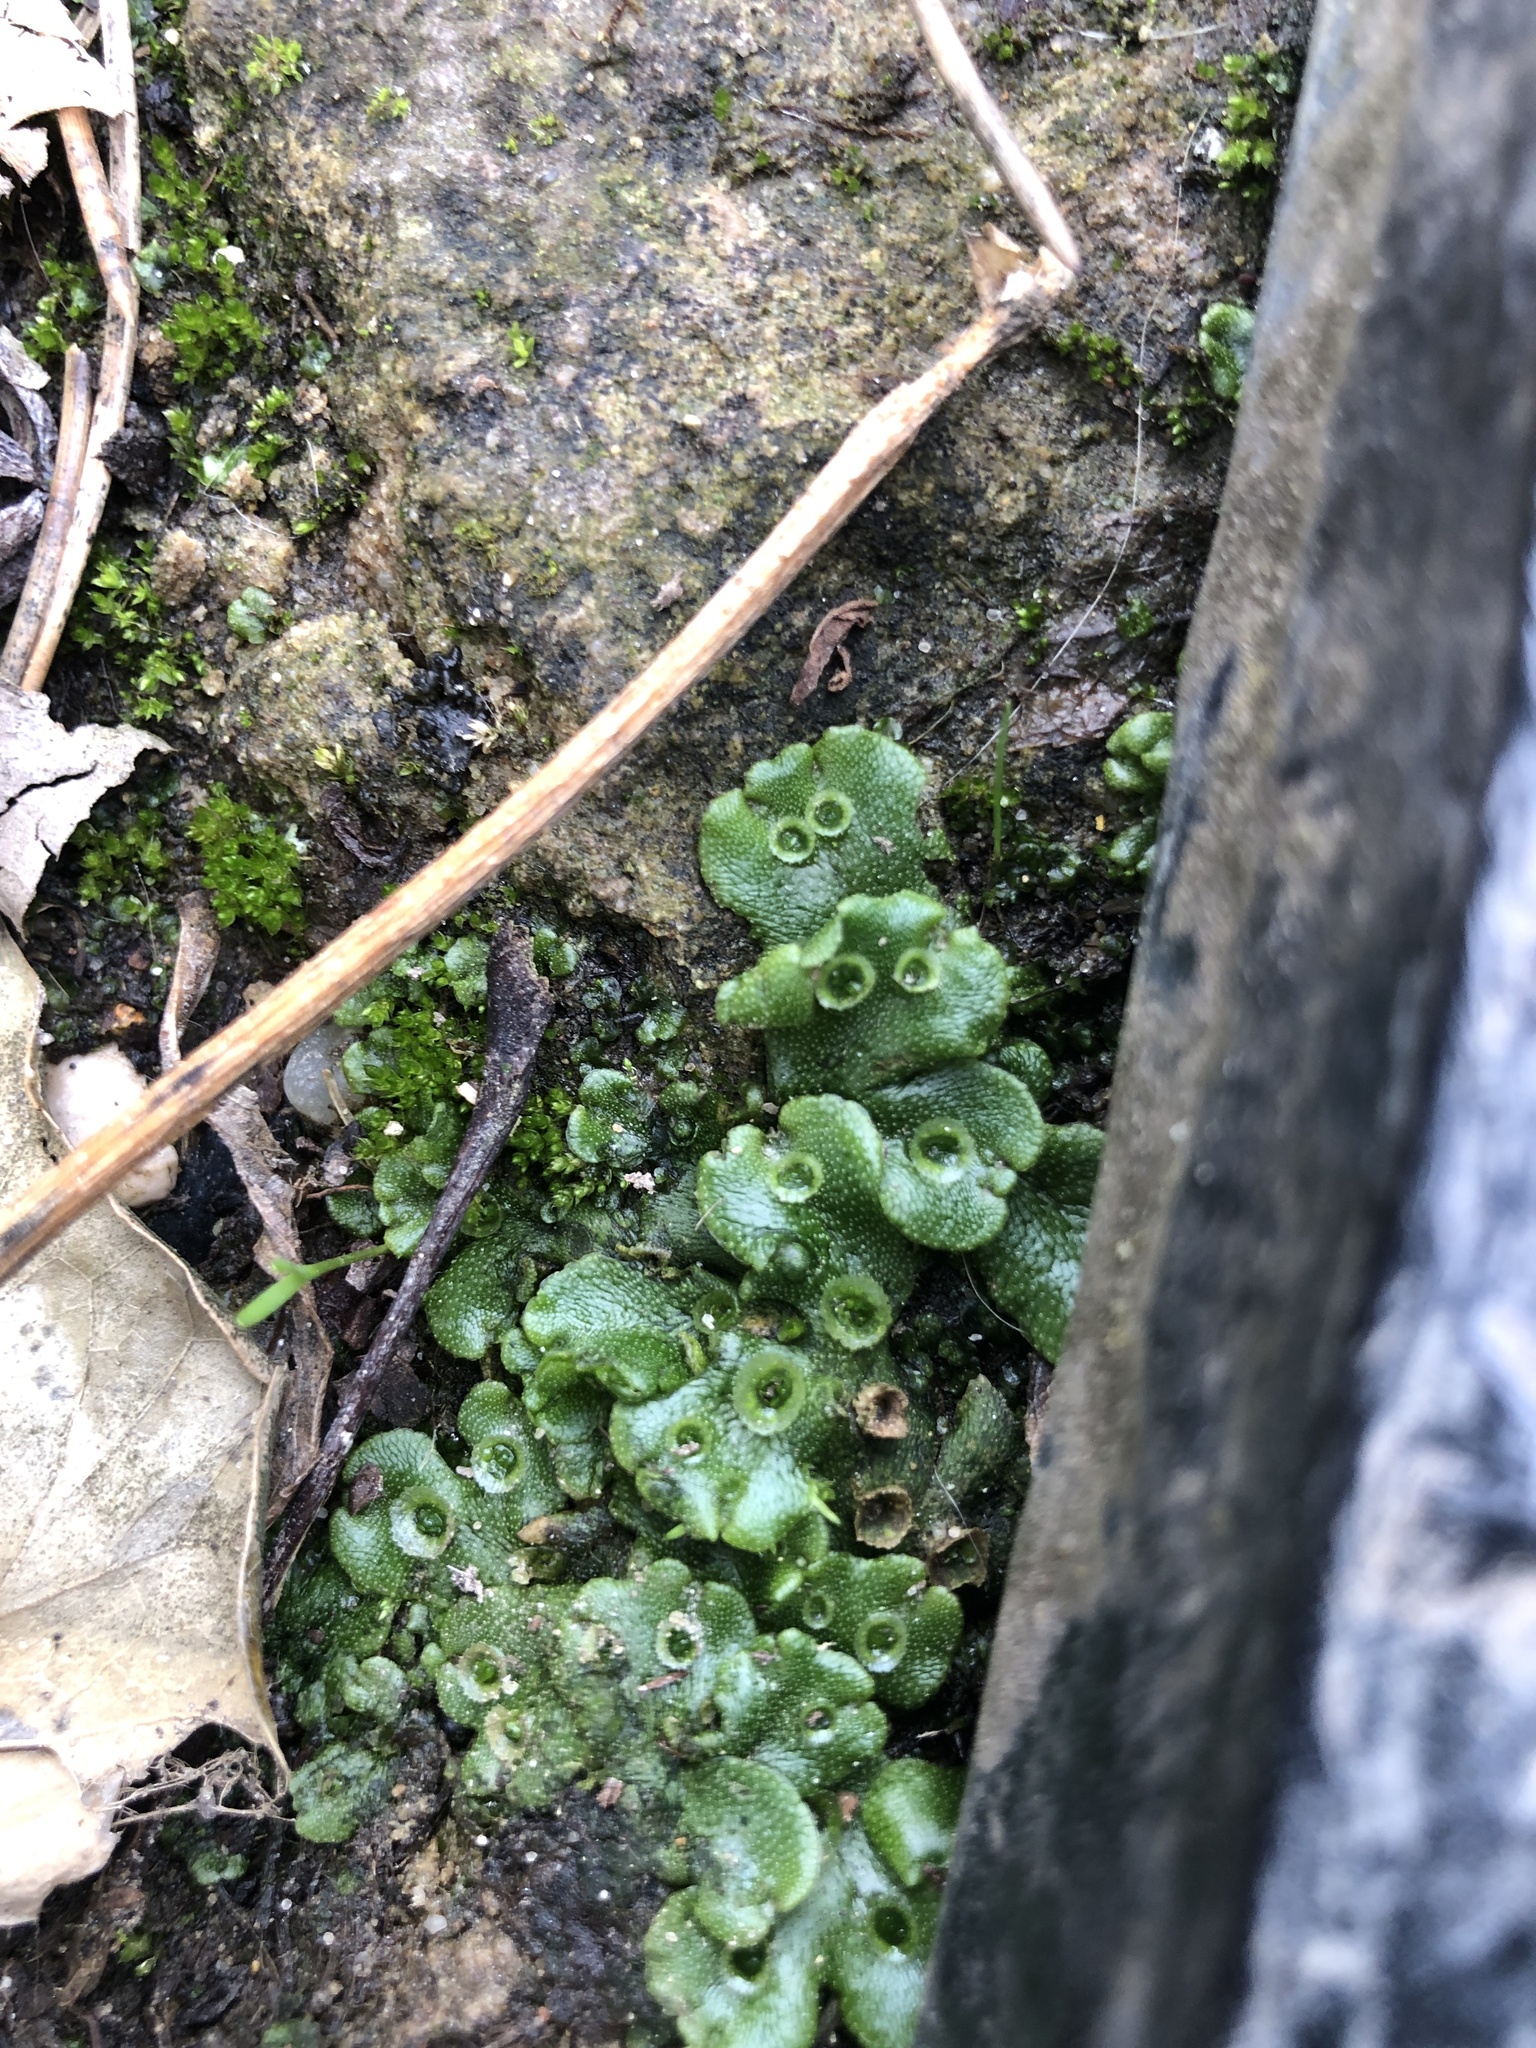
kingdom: Plantae
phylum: Marchantiophyta
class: Marchantiopsida
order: Marchantiales
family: Marchantiaceae
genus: Marchantia
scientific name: Marchantia polymorpha
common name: Common liverwort
